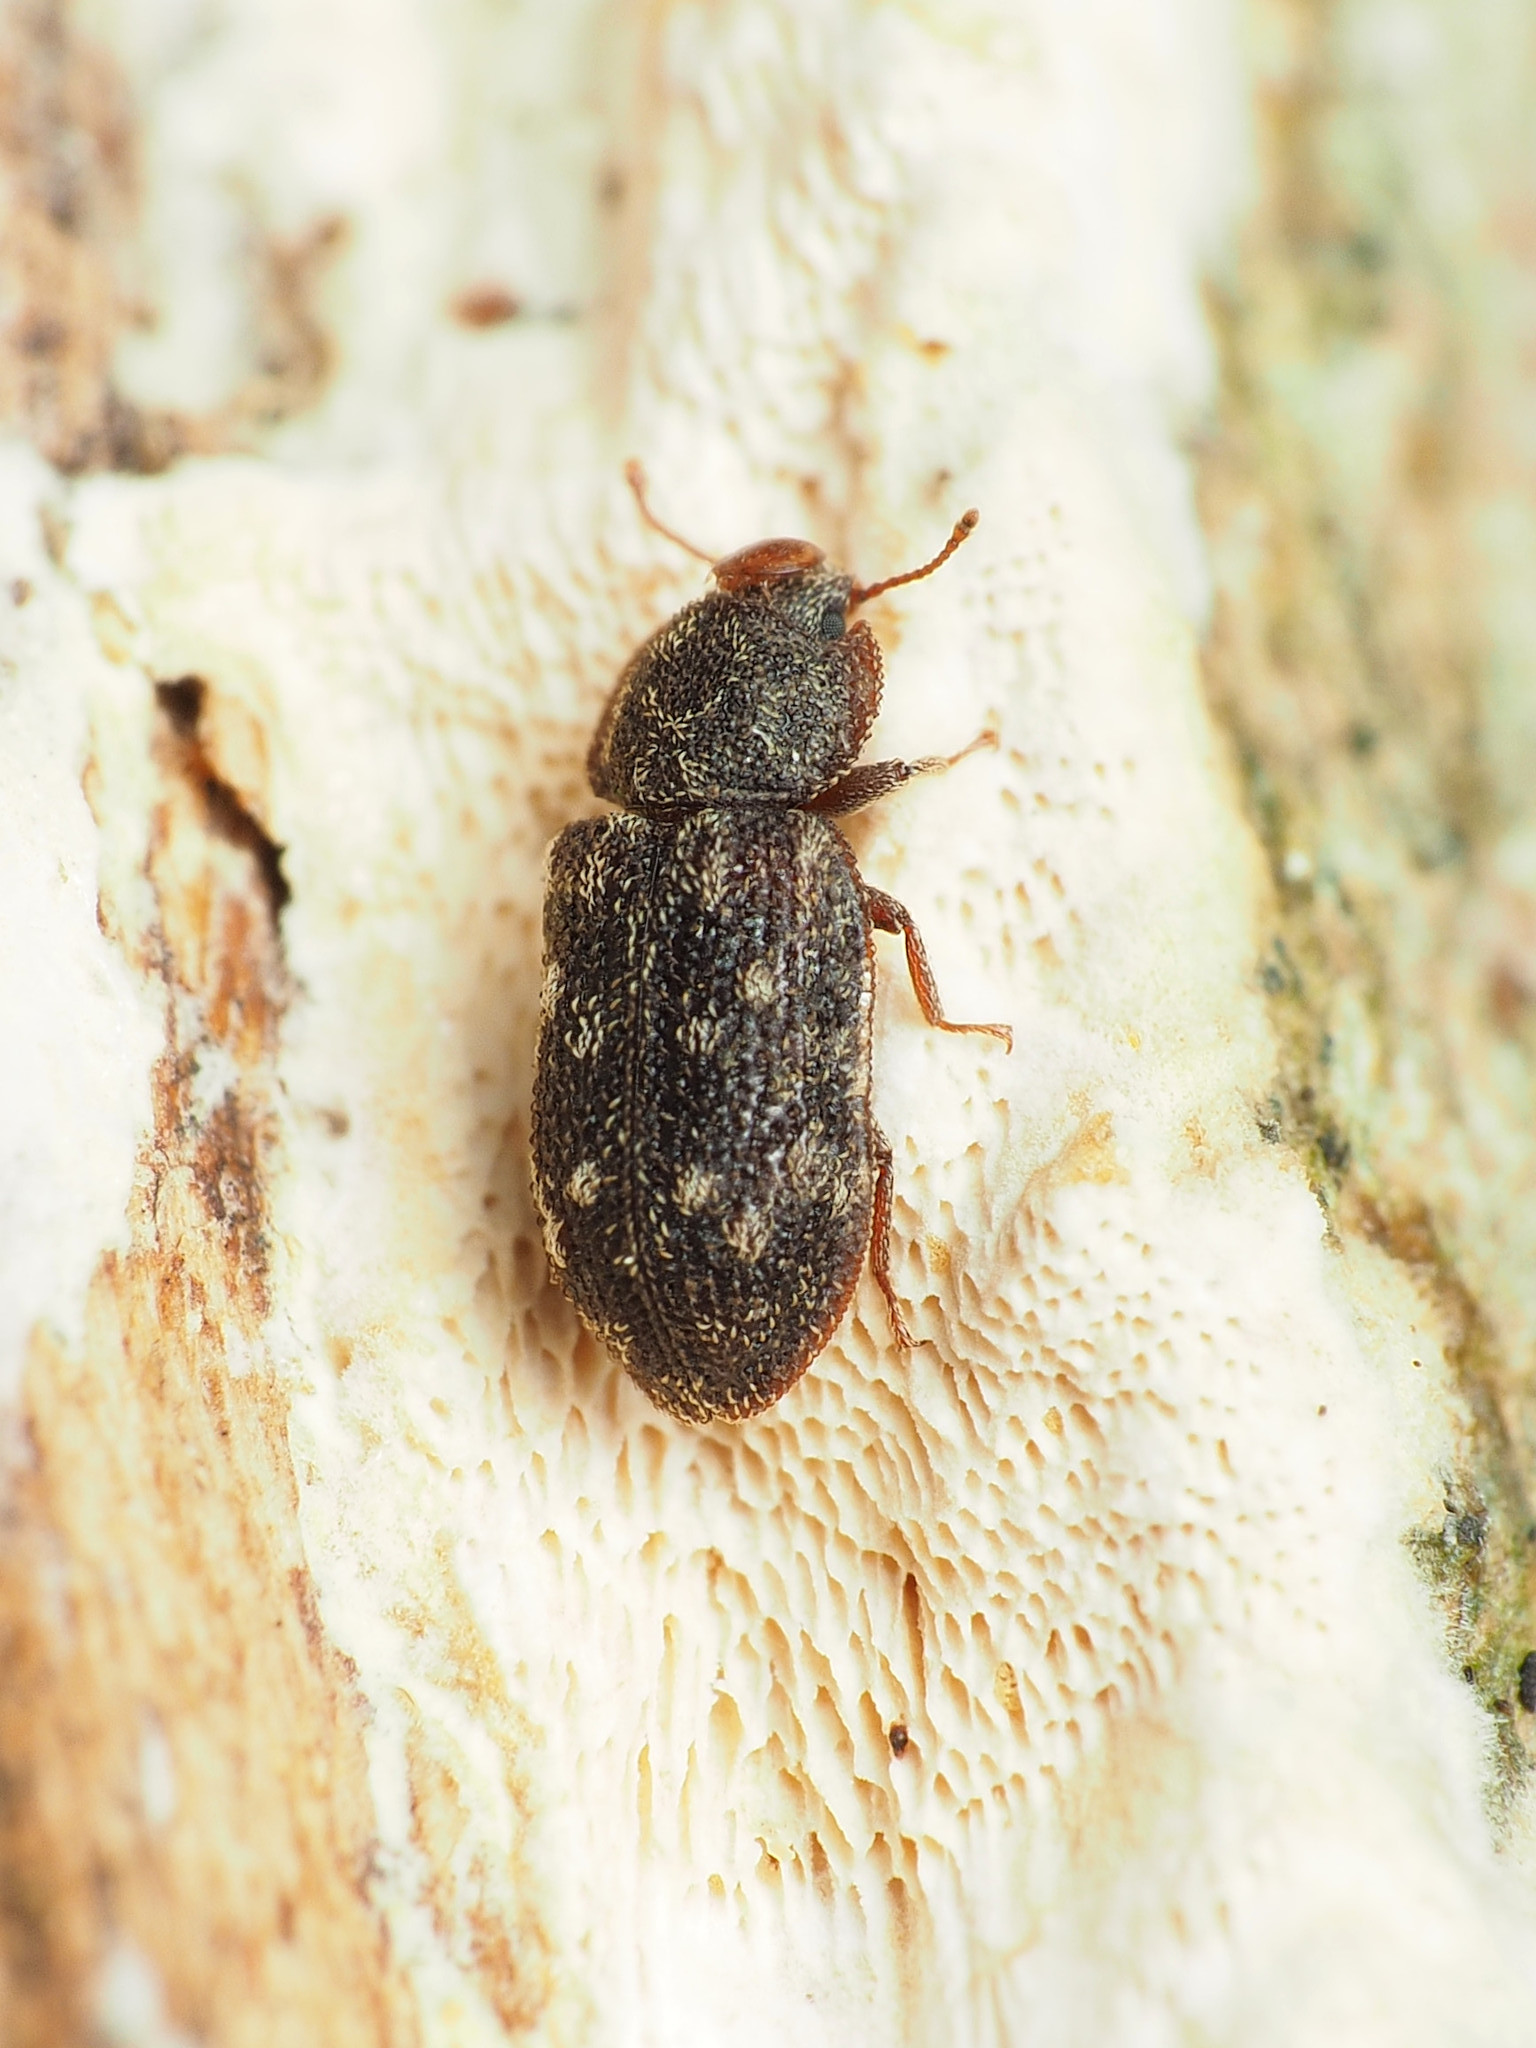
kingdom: Animalia
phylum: Arthropoda
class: Insecta
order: Coleoptera
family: Zopheridae
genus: Namunaria
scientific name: Namunaria guttulata
